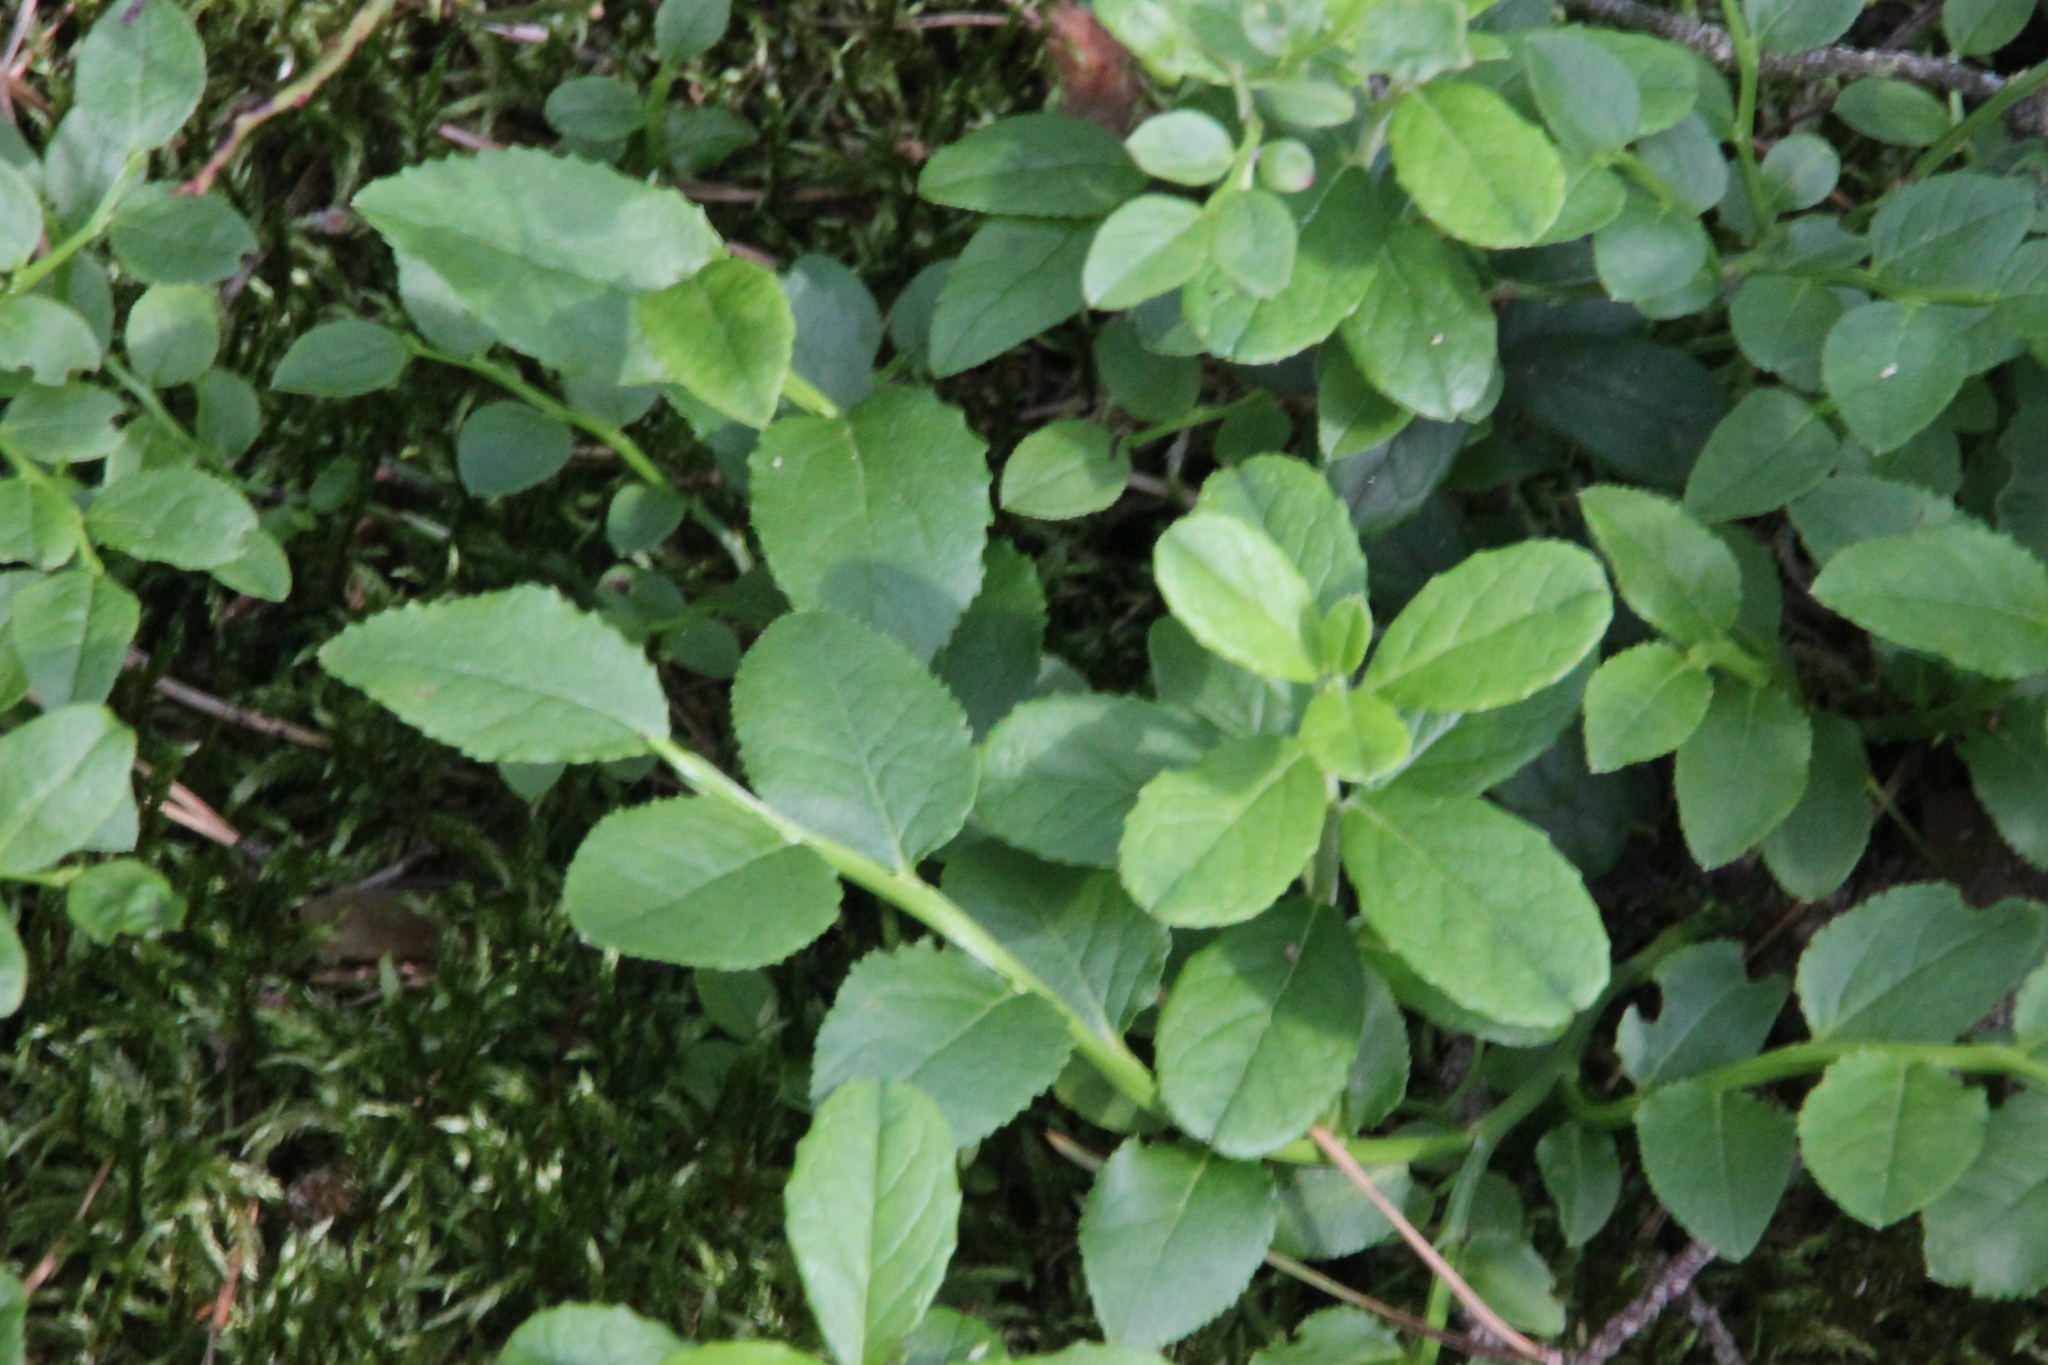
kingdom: Plantae
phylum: Tracheophyta
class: Magnoliopsida
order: Ericales
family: Ericaceae
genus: Vaccinium
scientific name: Vaccinium myrtillus
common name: Bilberry
